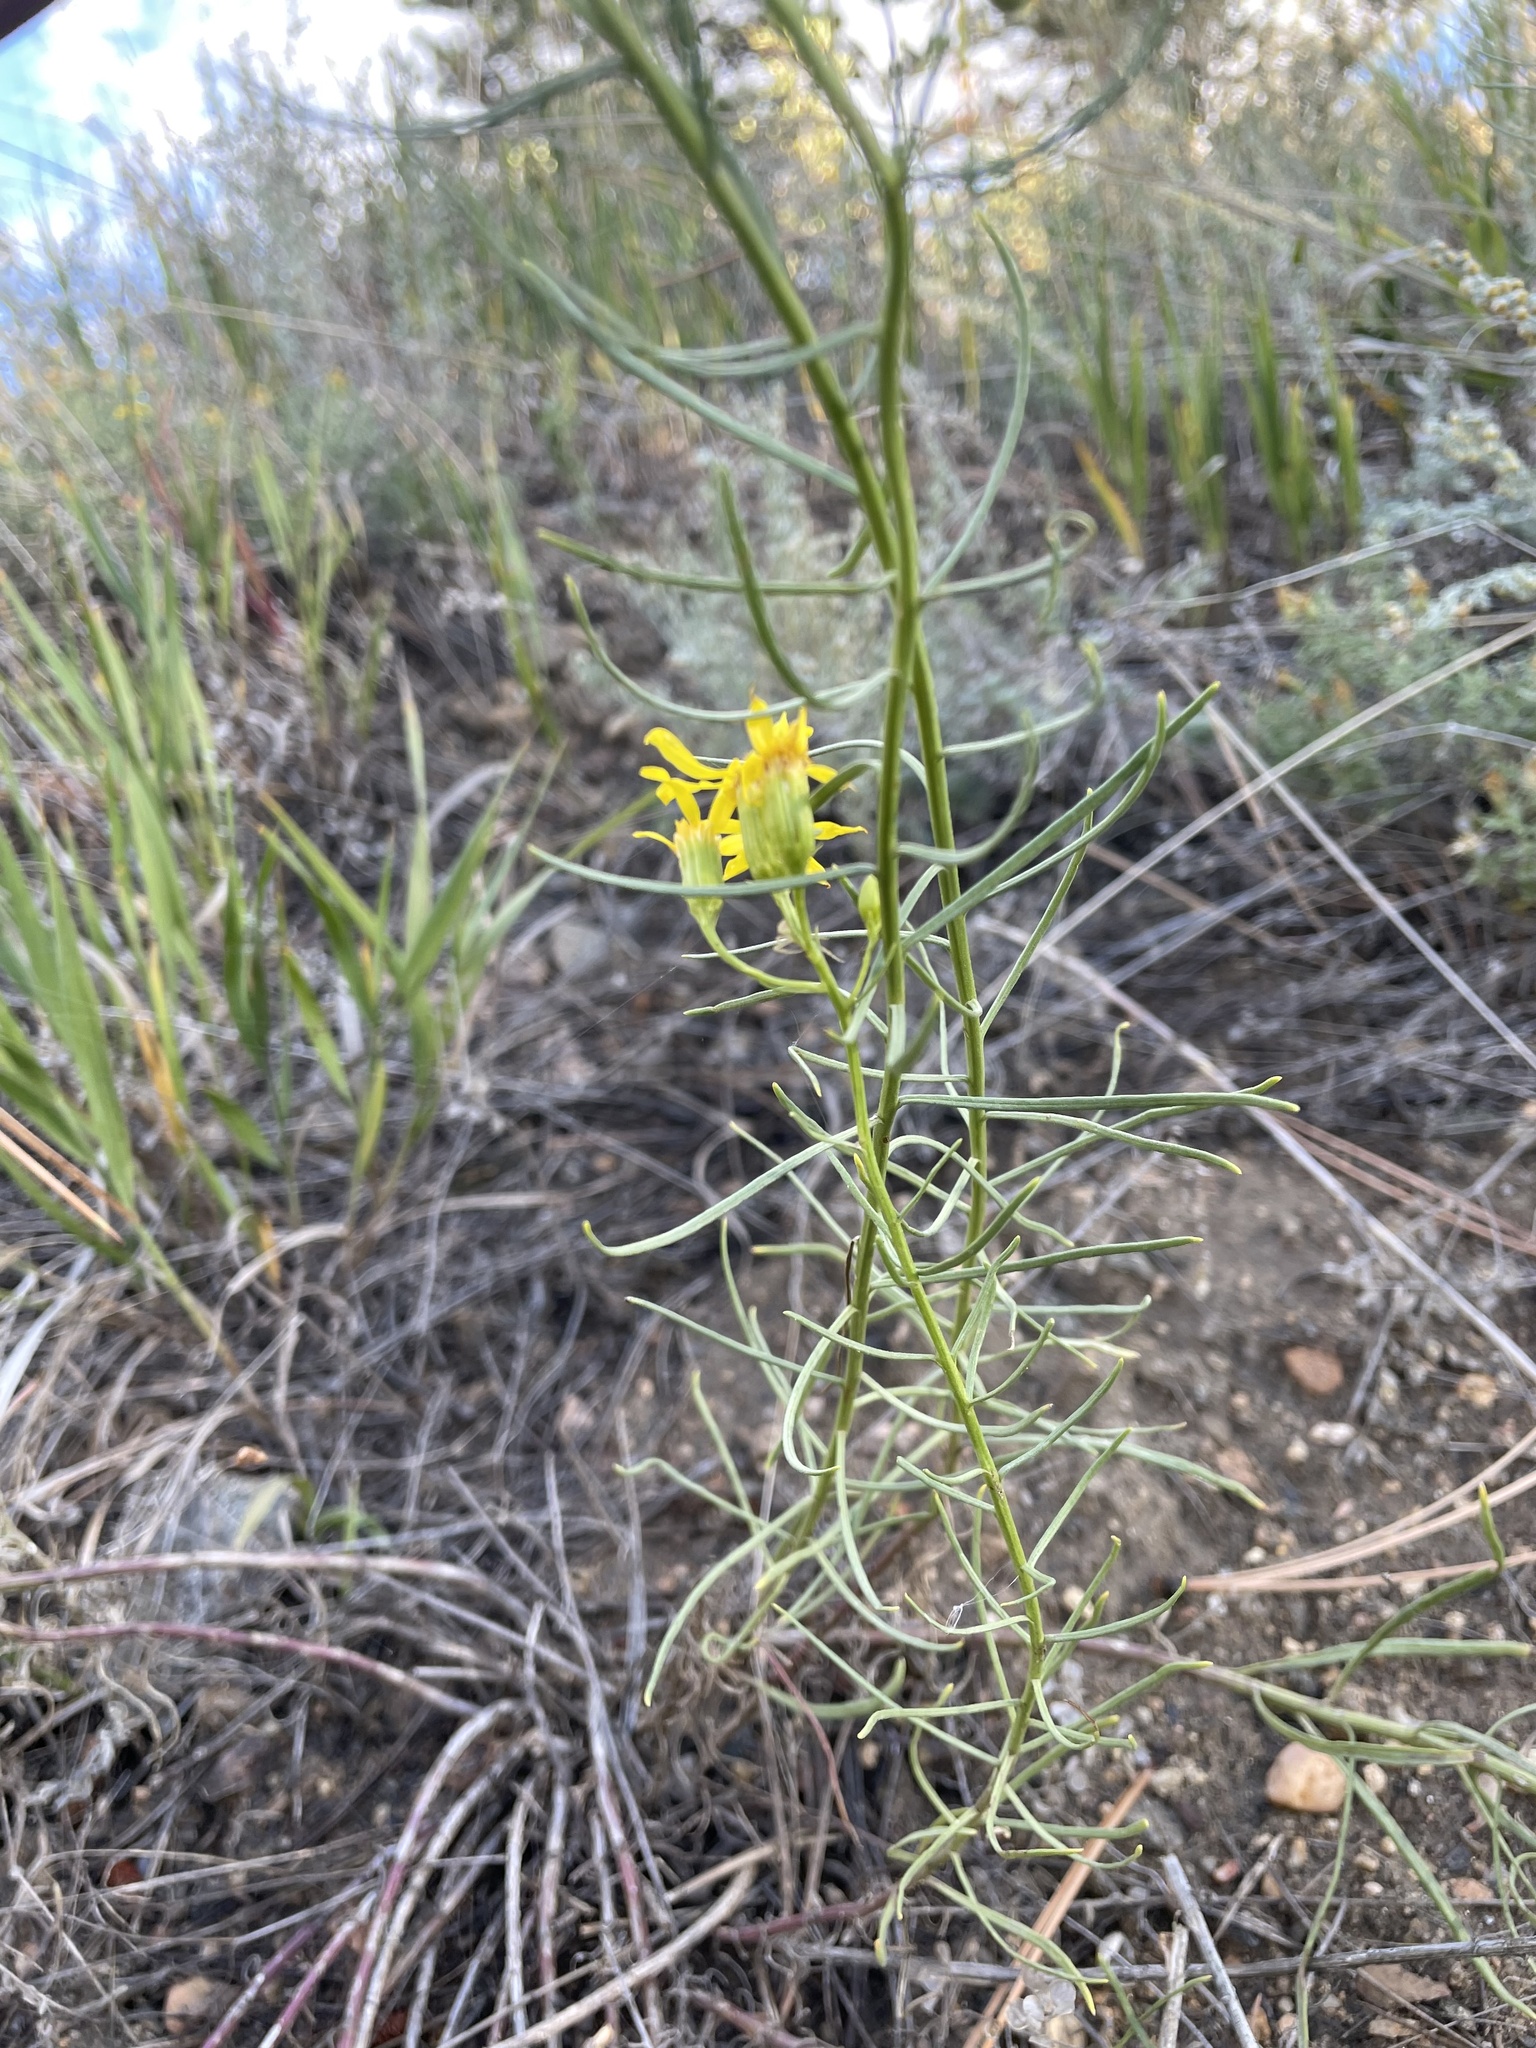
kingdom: Plantae
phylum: Tracheophyta
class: Magnoliopsida
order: Asterales
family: Asteraceae
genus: Senecio
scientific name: Senecio spartioides
